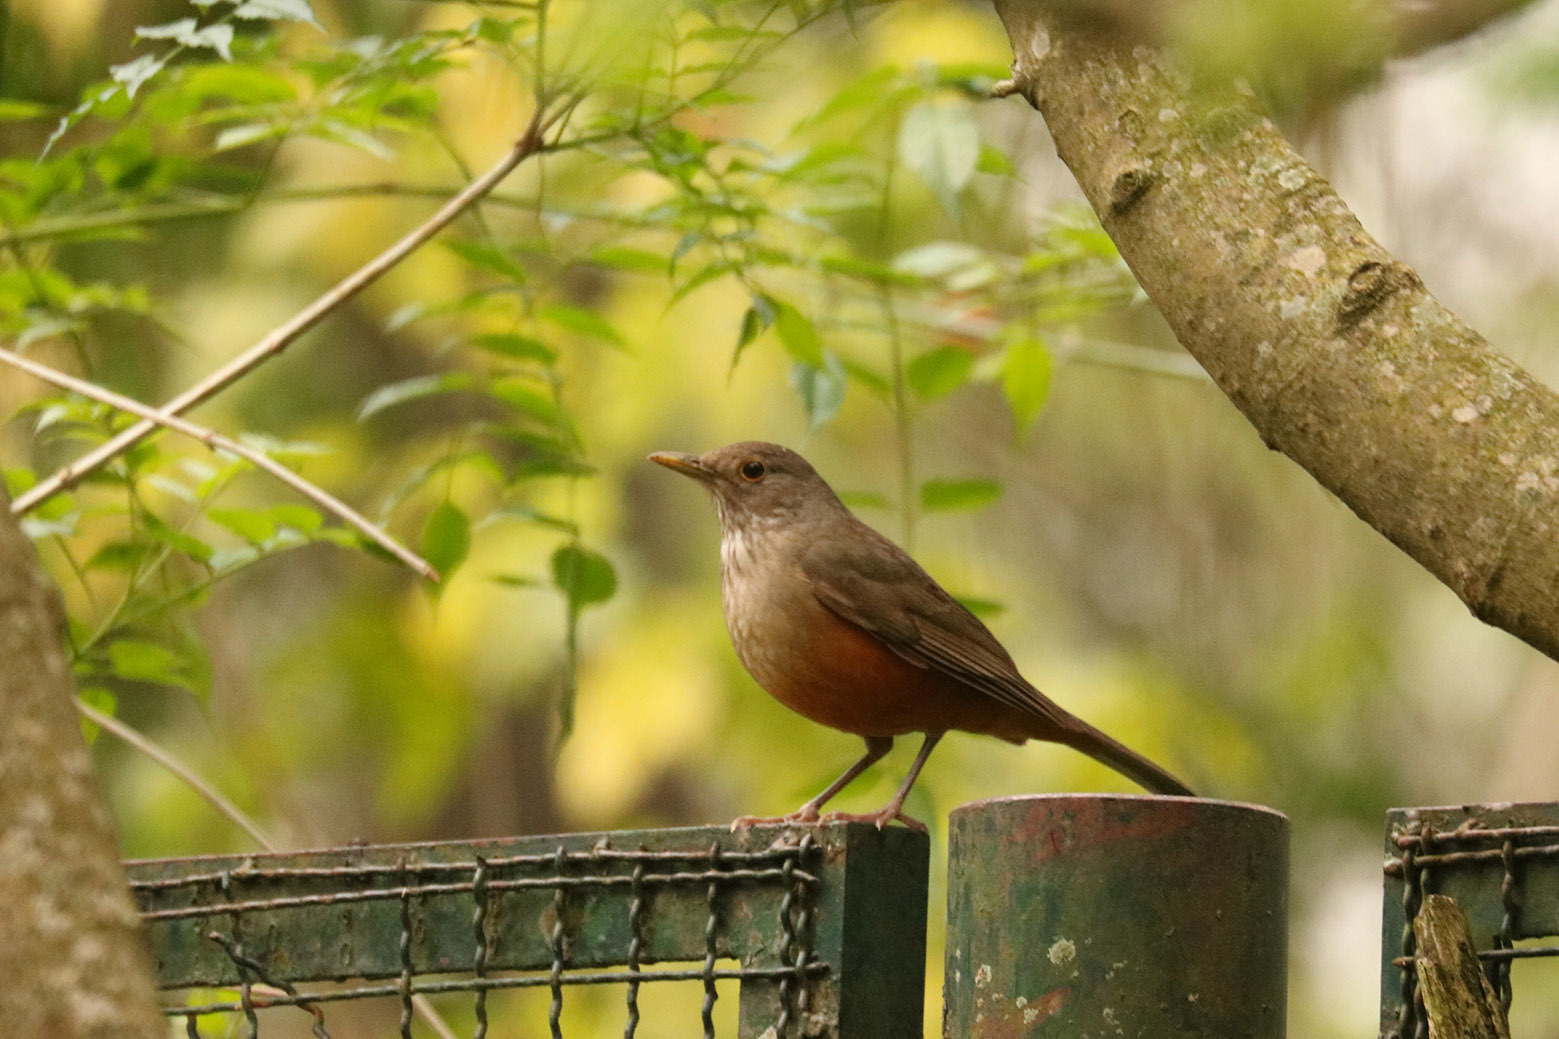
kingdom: Animalia
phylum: Chordata
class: Aves
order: Passeriformes
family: Turdidae
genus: Turdus
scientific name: Turdus rufiventris
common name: Rufous-bellied thrush
